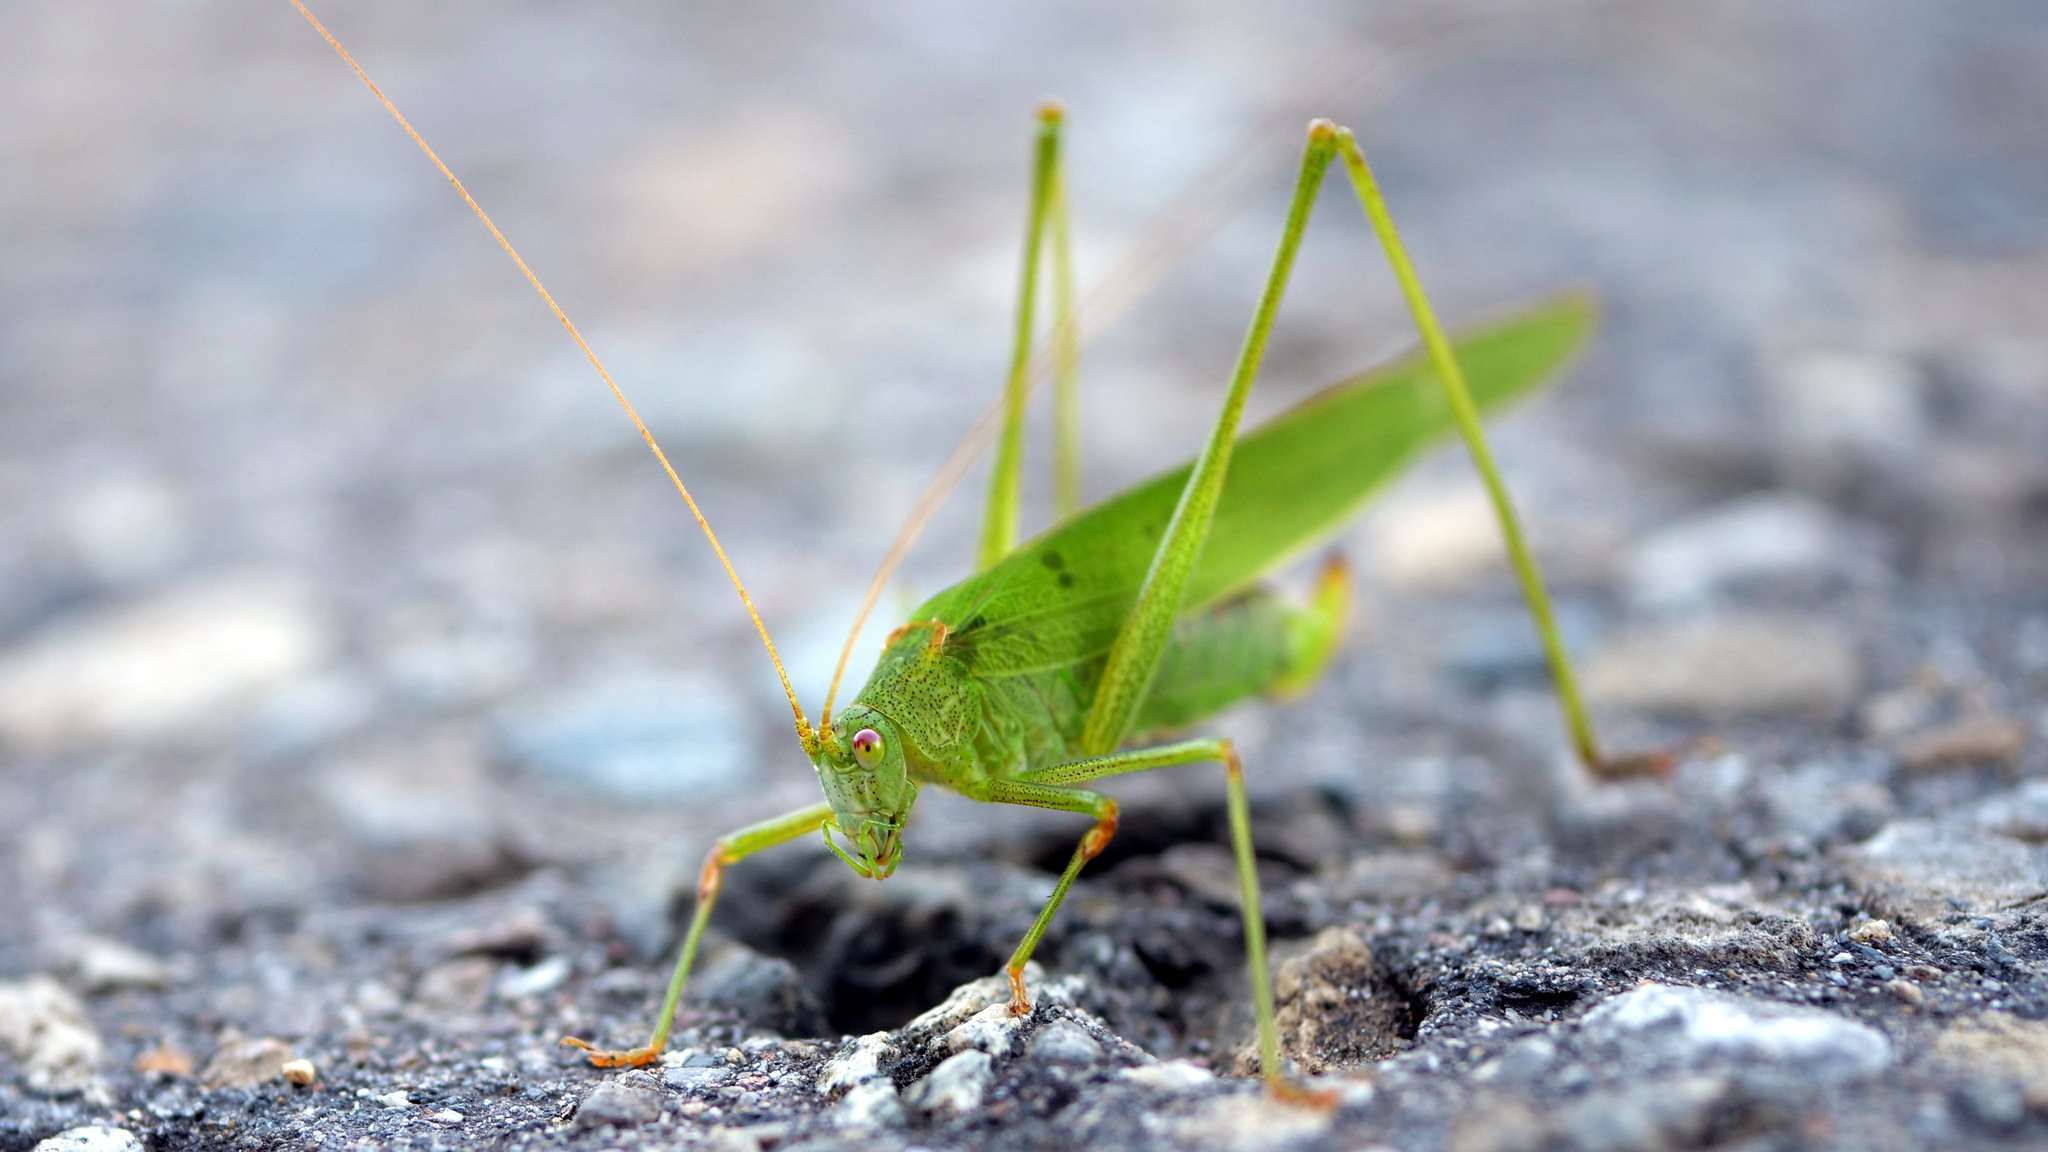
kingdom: Animalia
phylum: Arthropoda
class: Insecta
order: Orthoptera
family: Tettigoniidae
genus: Phaneroptera
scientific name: Phaneroptera falcata
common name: Sickle-bearing bush-cricket
